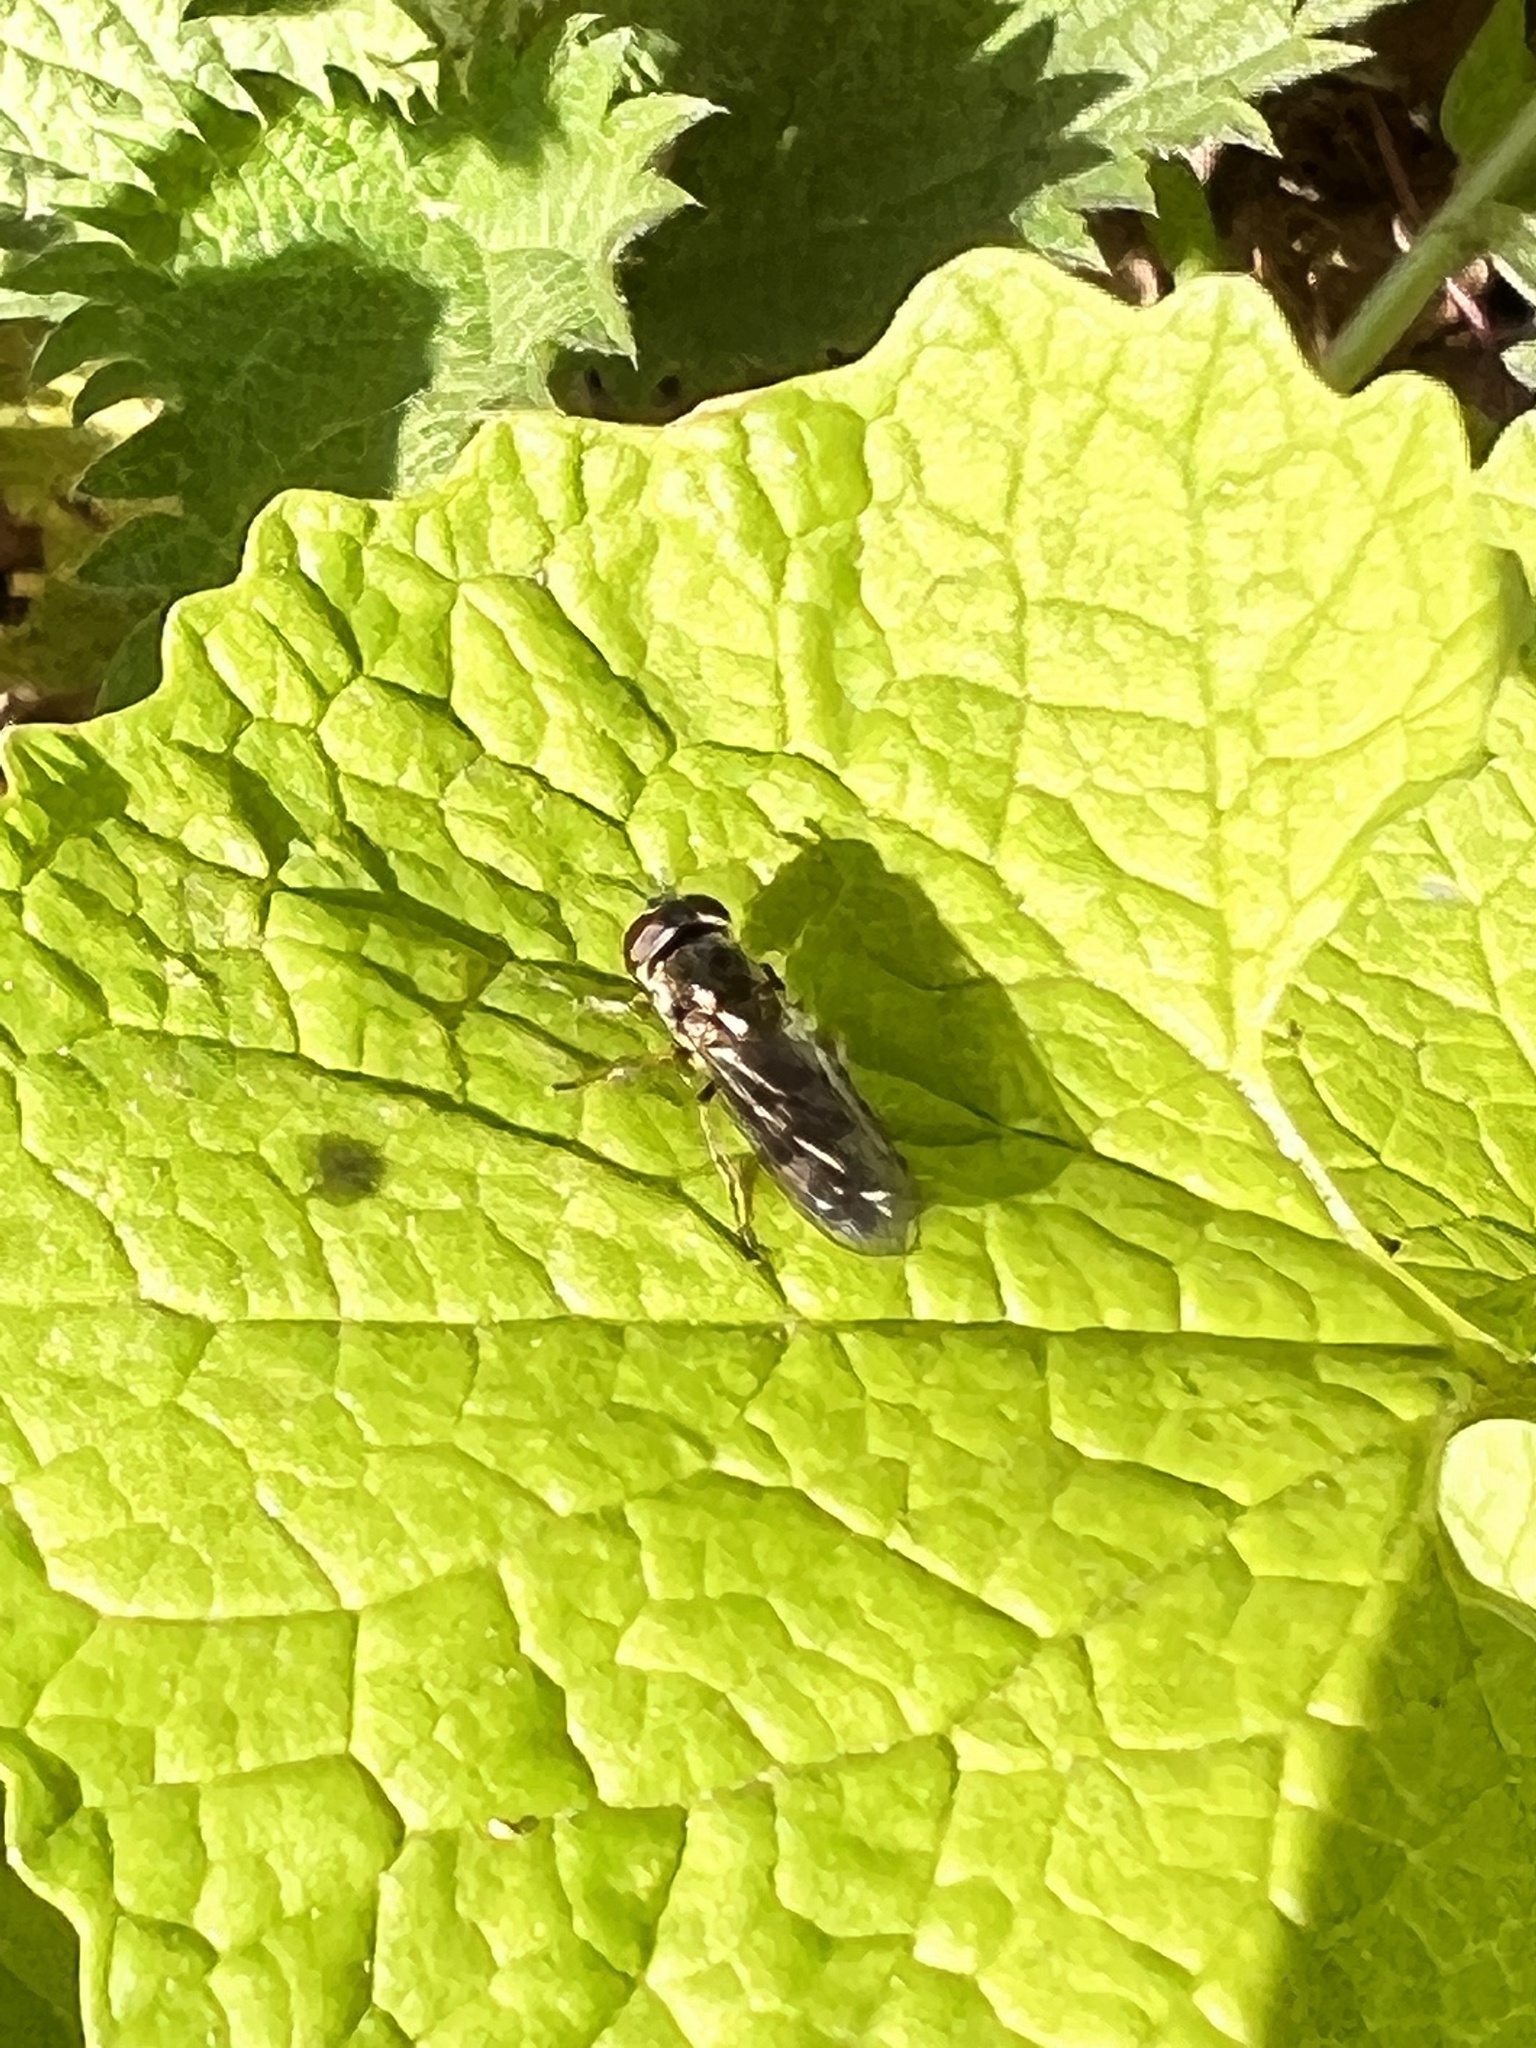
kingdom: Animalia
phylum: Arthropoda
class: Insecta
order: Diptera
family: Syrphidae
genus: Platycheirus
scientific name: Platycheirus albimanus
